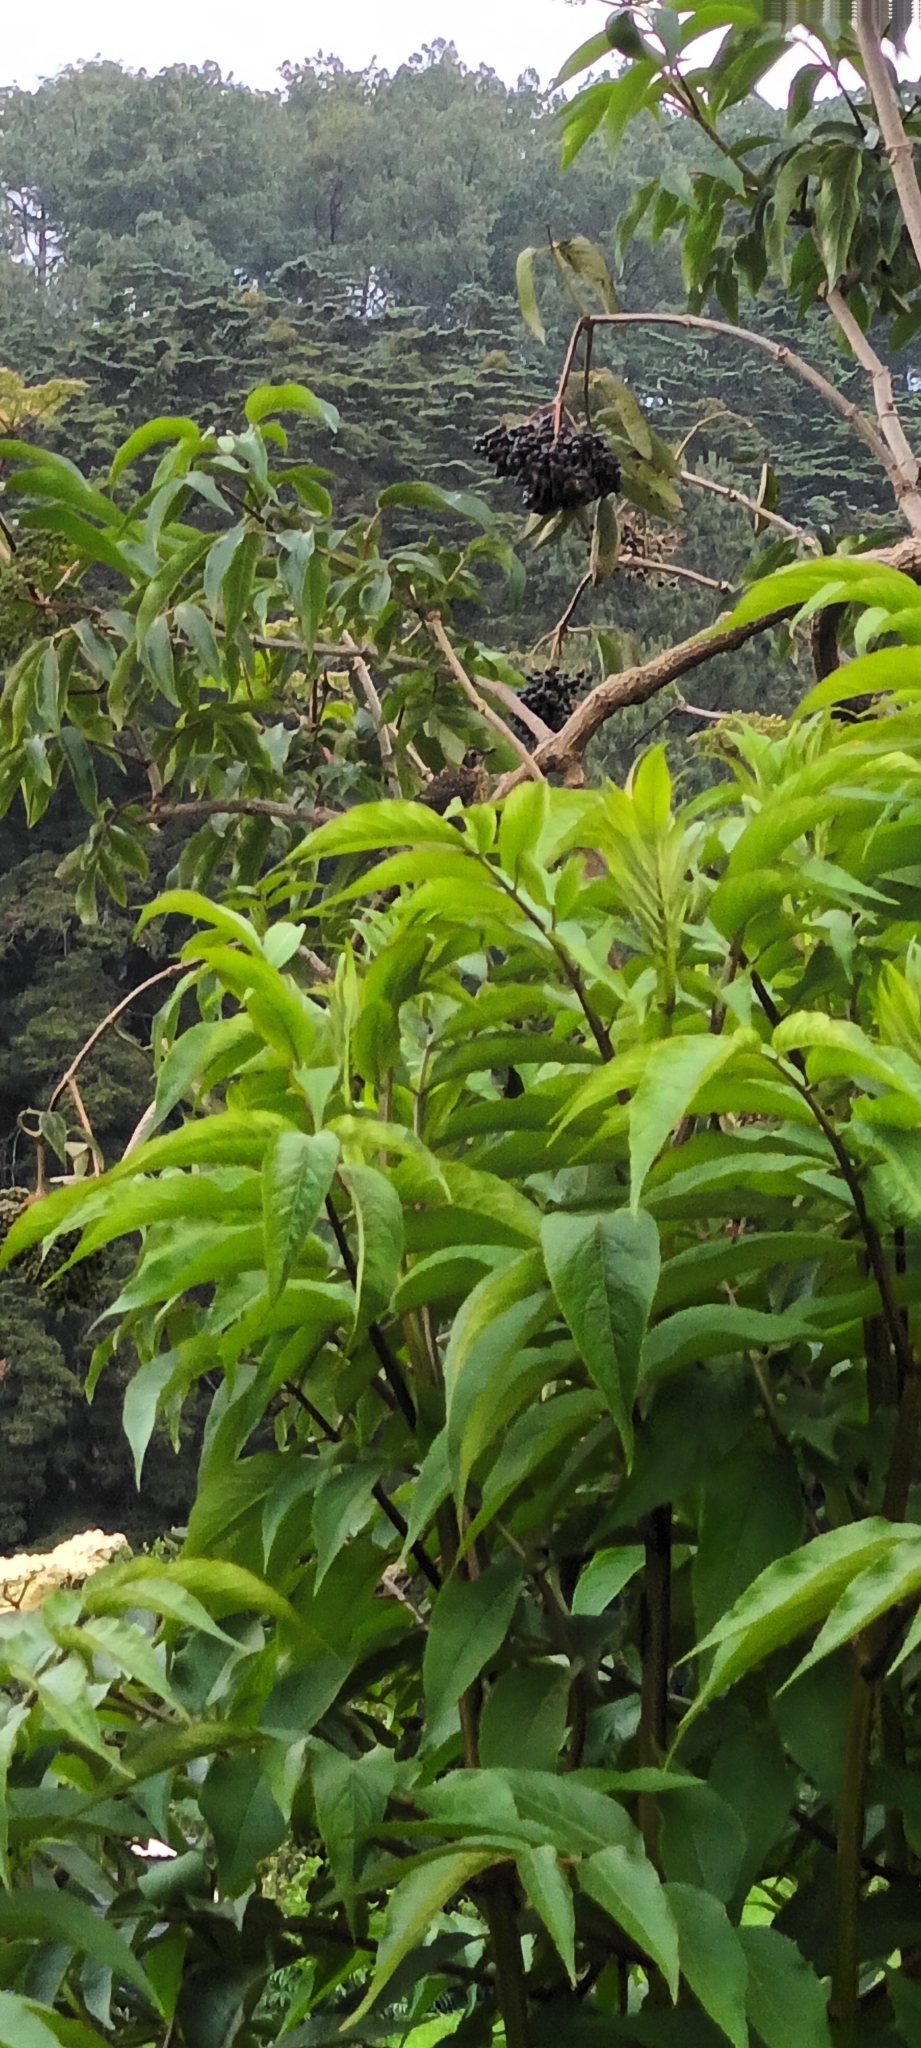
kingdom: Animalia
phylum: Chordata
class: Aves
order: Passeriformes
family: Turdidae
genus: Turdus
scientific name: Turdus rufitorques
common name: Rufous-collared thrush
